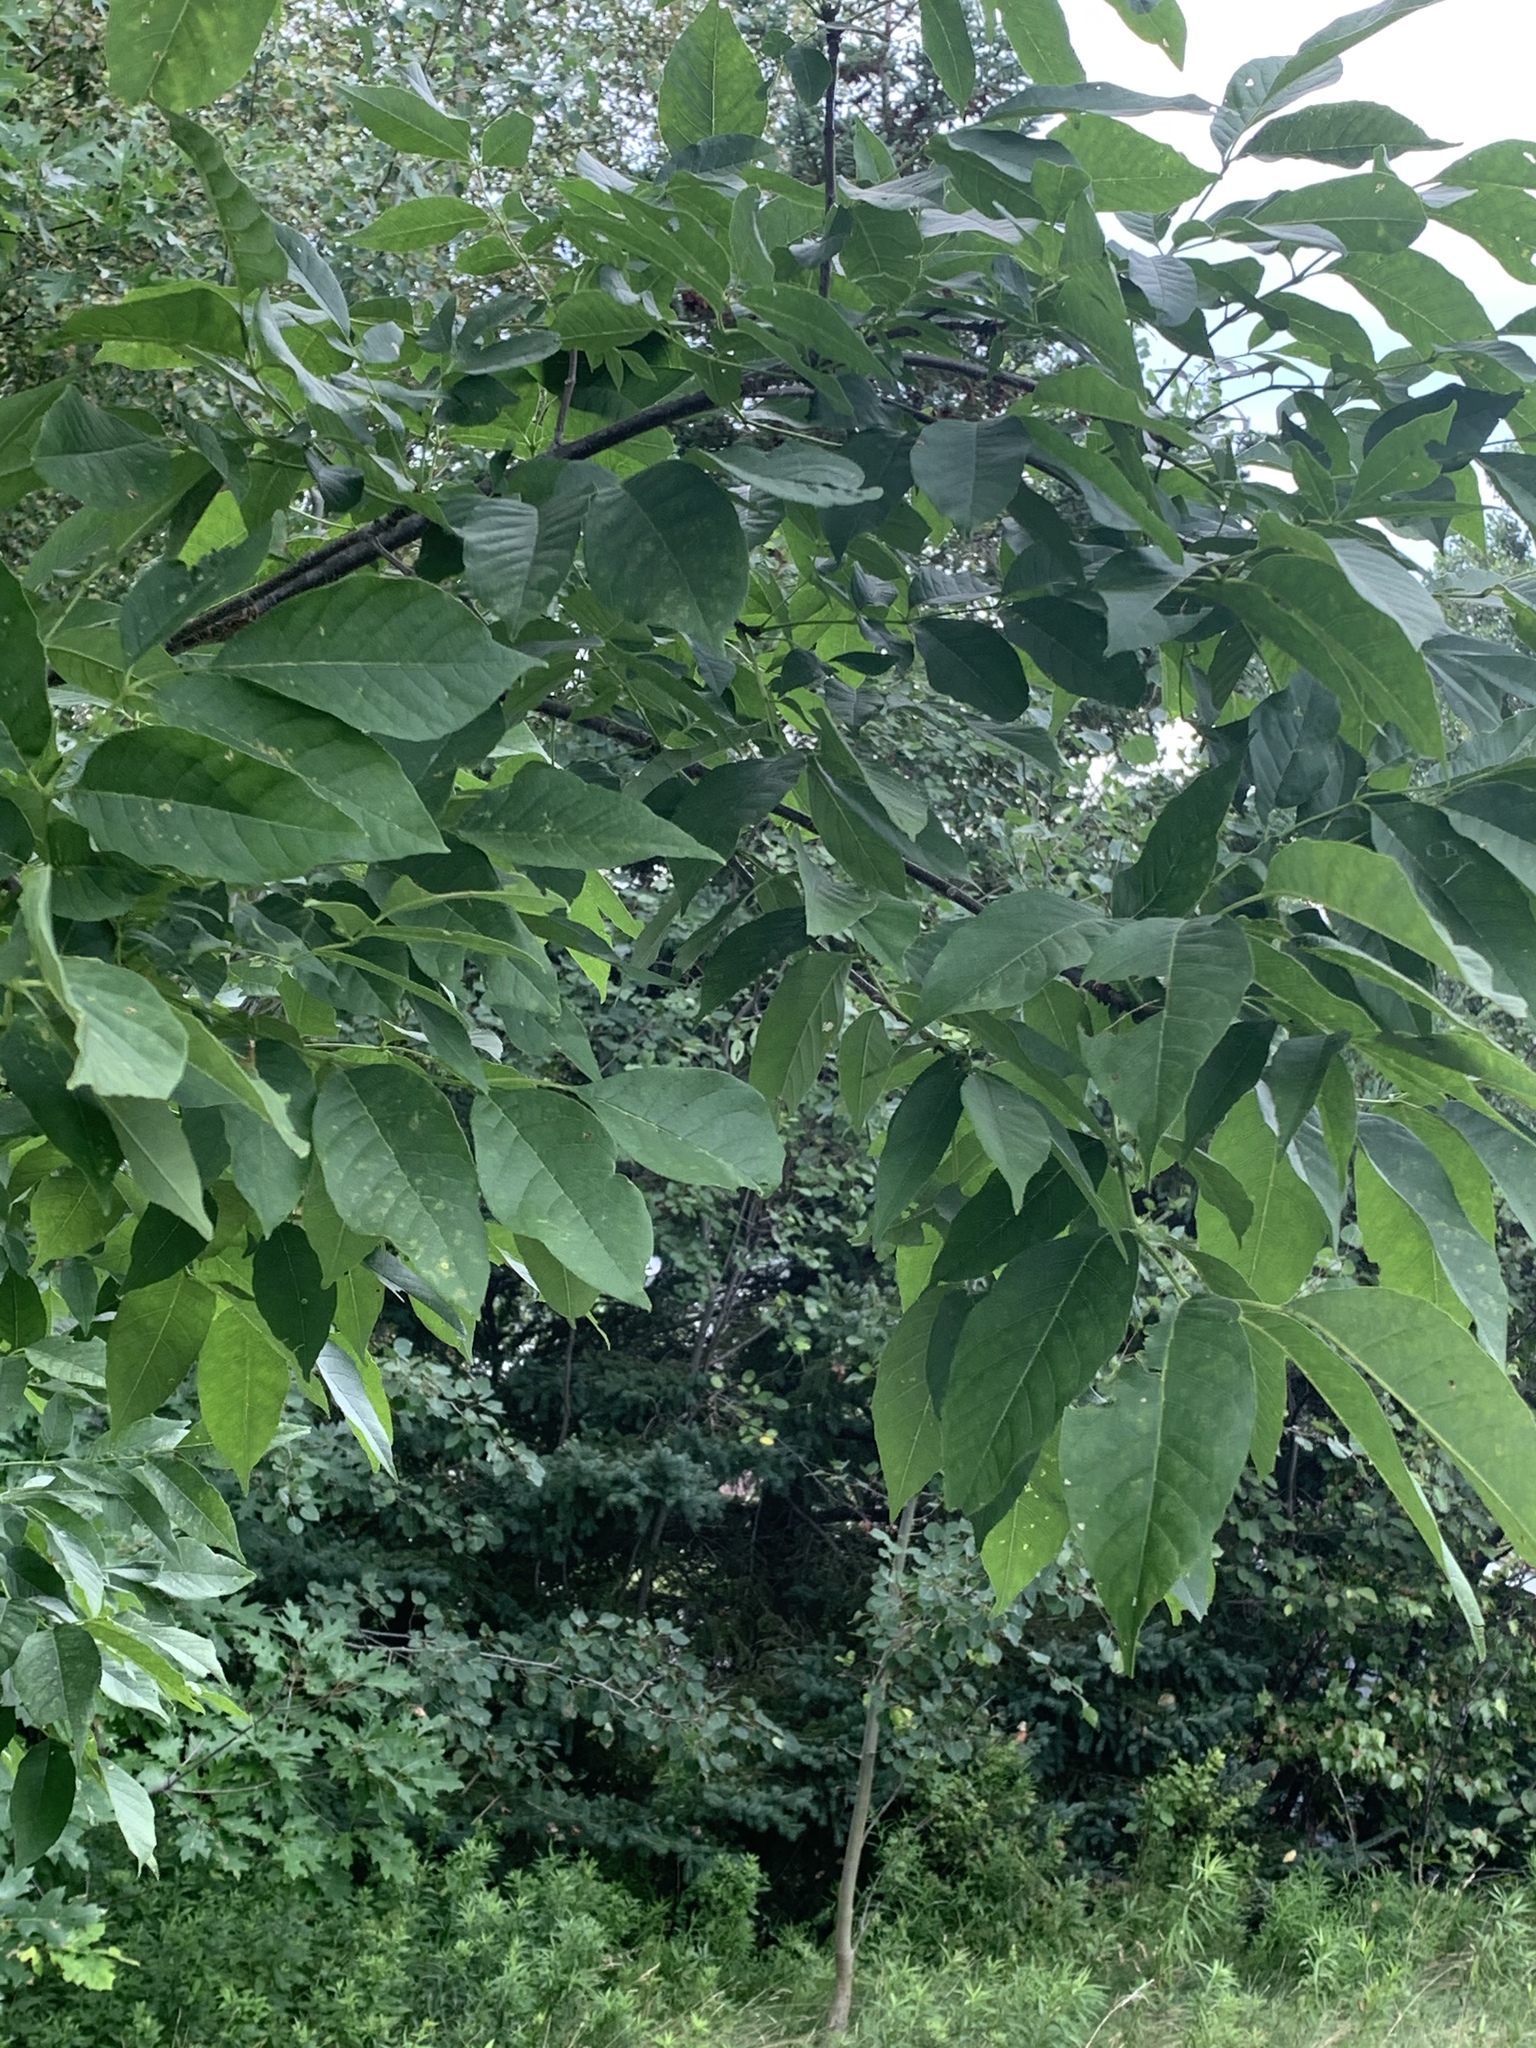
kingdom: Plantae
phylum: Tracheophyta
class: Magnoliopsida
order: Lamiales
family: Oleaceae
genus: Fraxinus
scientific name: Fraxinus americana
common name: White ash
